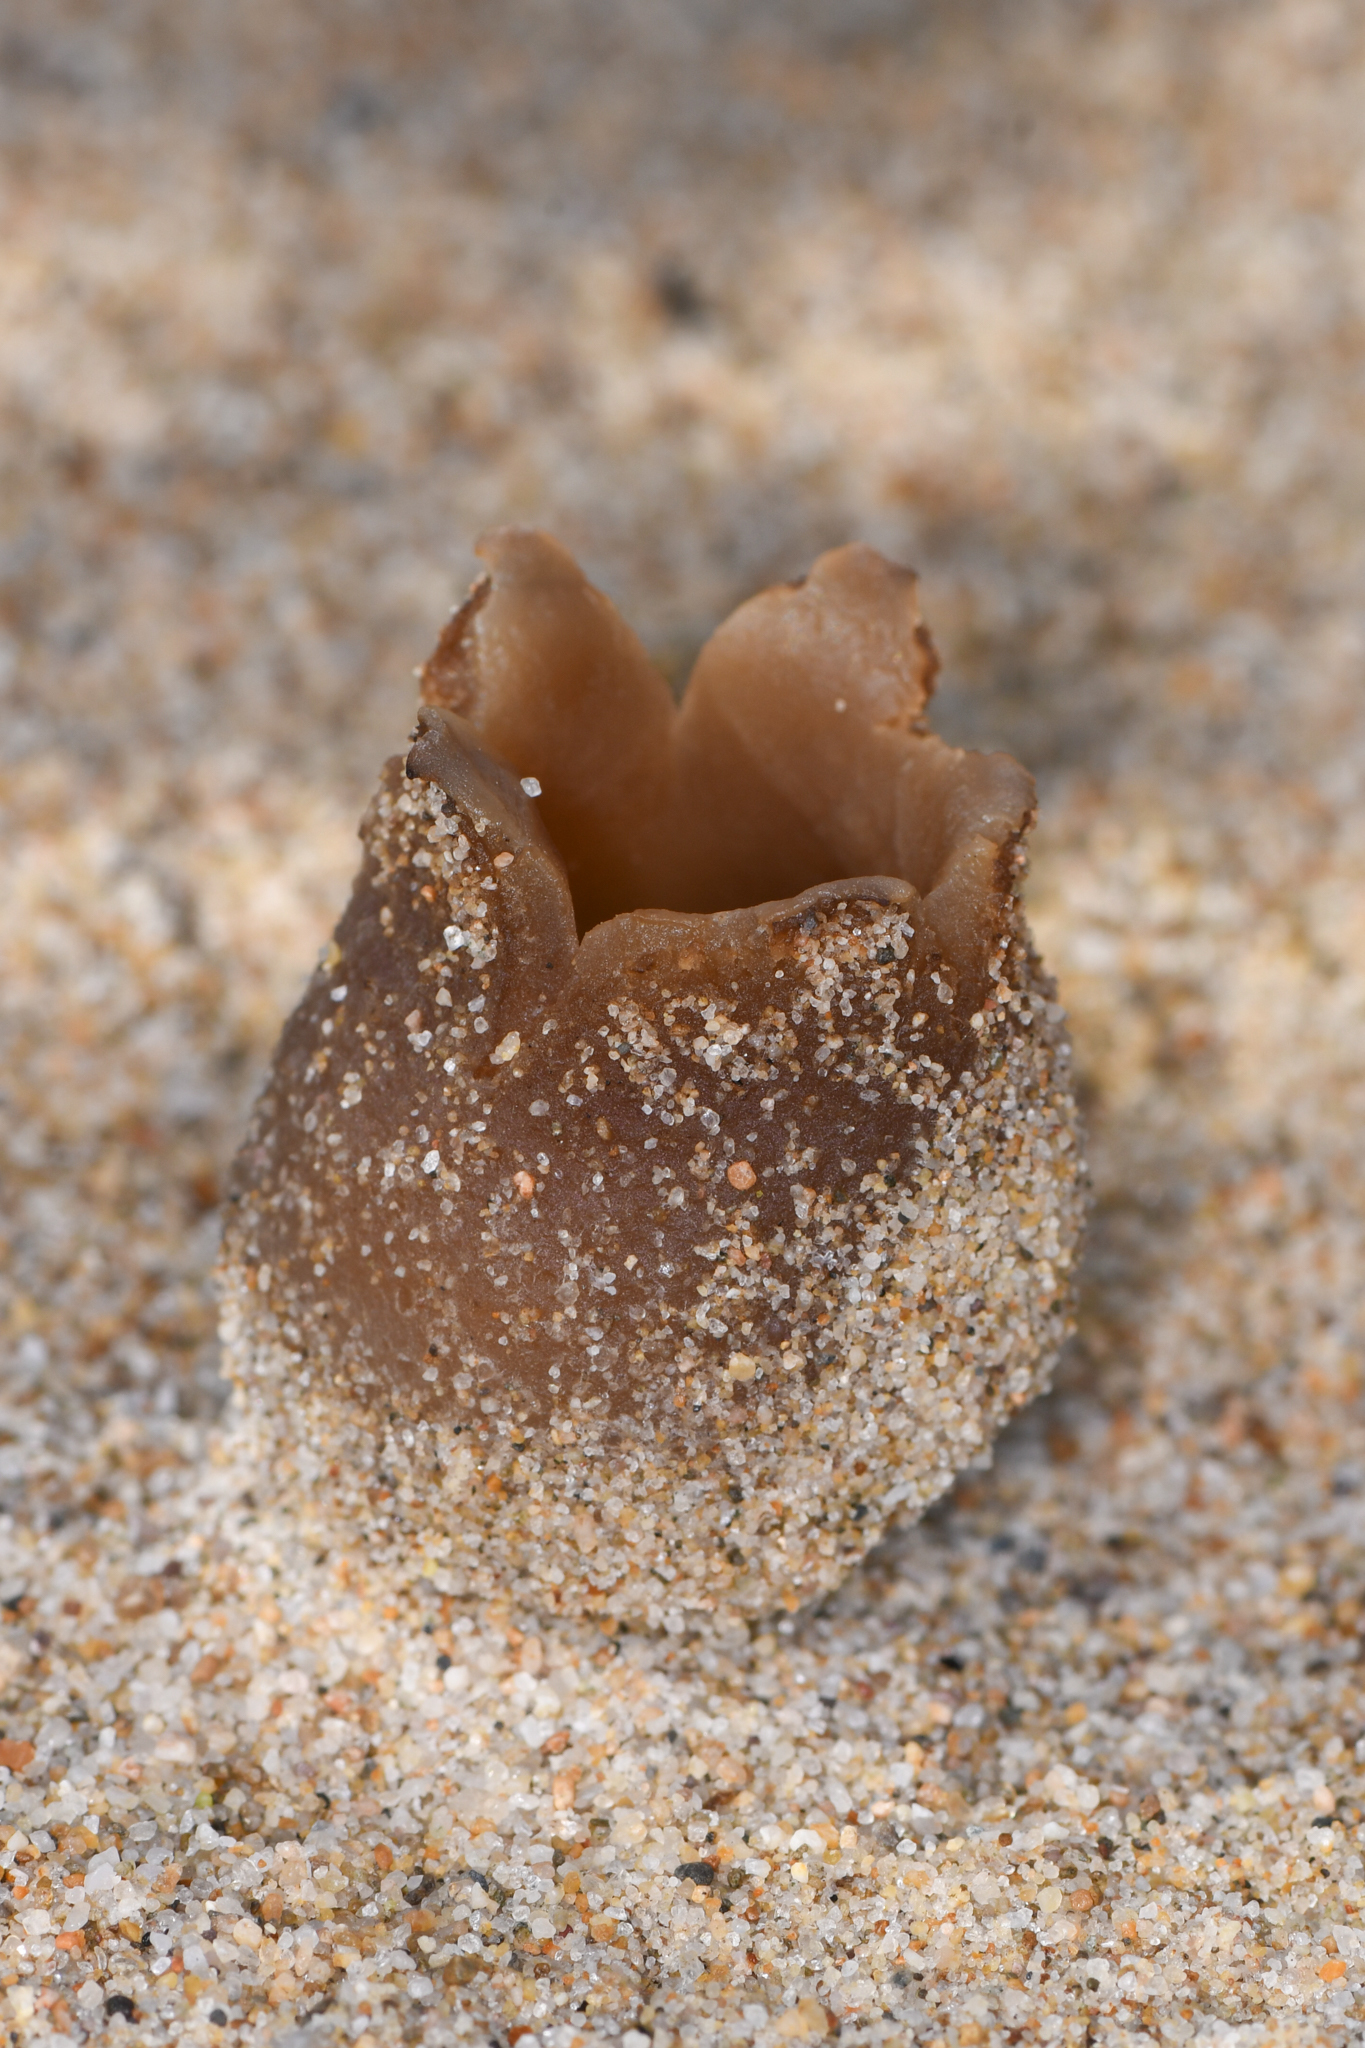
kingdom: Fungi
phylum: Ascomycota
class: Pezizomycetes
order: Pezizales
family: Pezizaceae
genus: Peziza
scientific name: Peziza ammophila
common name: Dune cup
